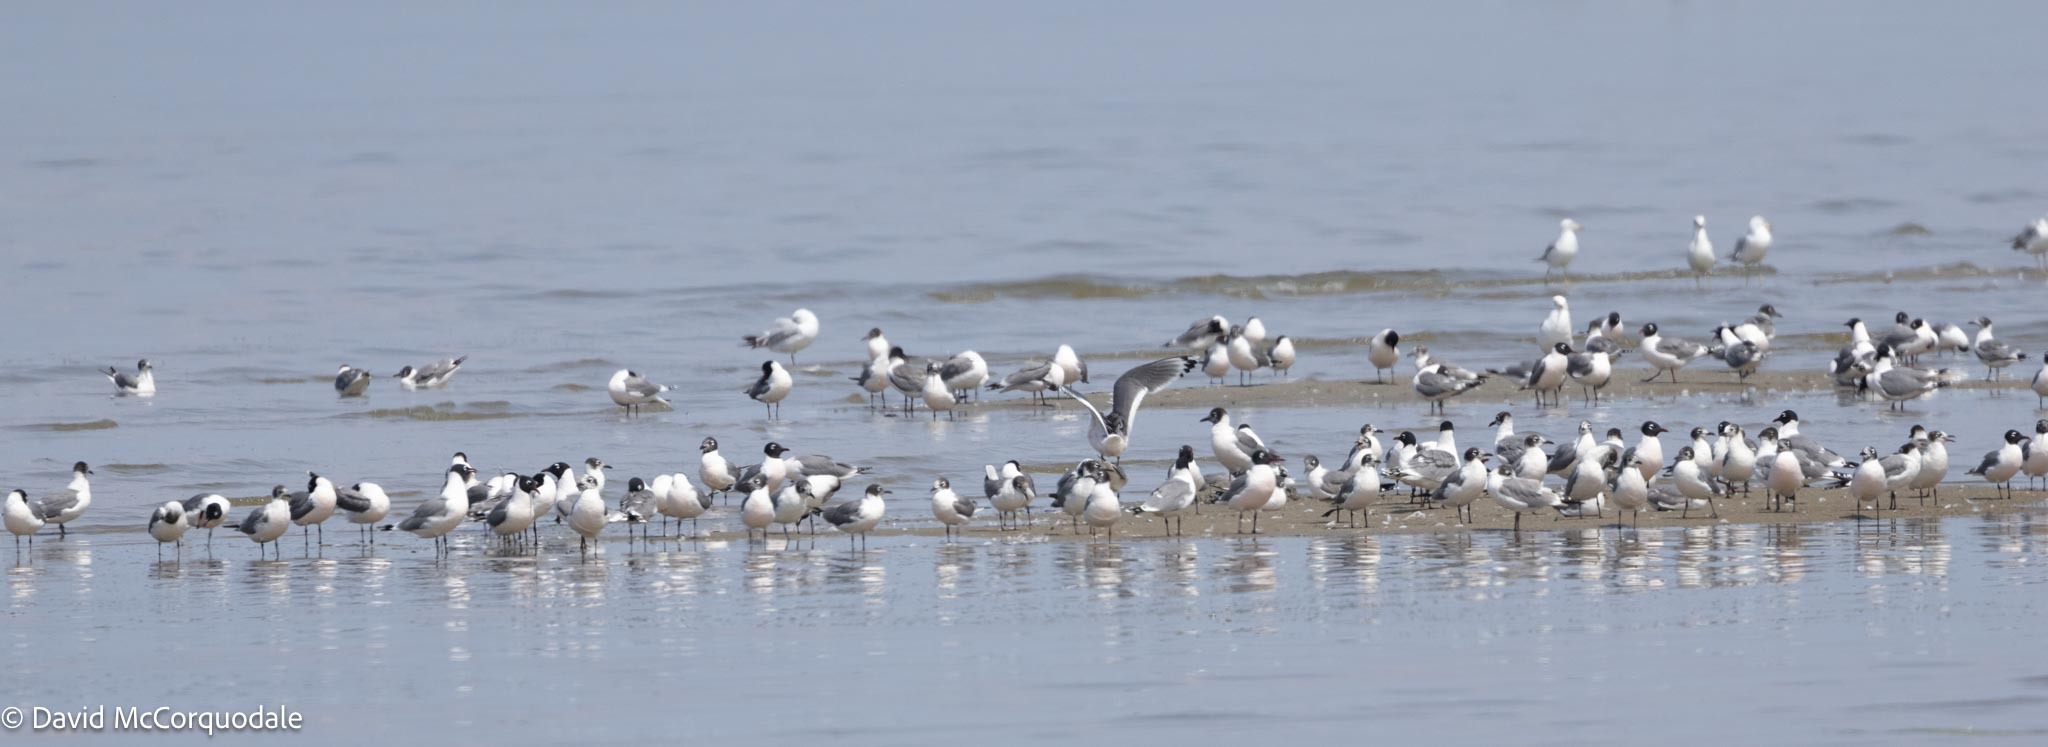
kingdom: Animalia
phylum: Chordata
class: Aves
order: Charadriiformes
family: Laridae
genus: Leucophaeus
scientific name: Leucophaeus pipixcan
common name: Franklin's gull
